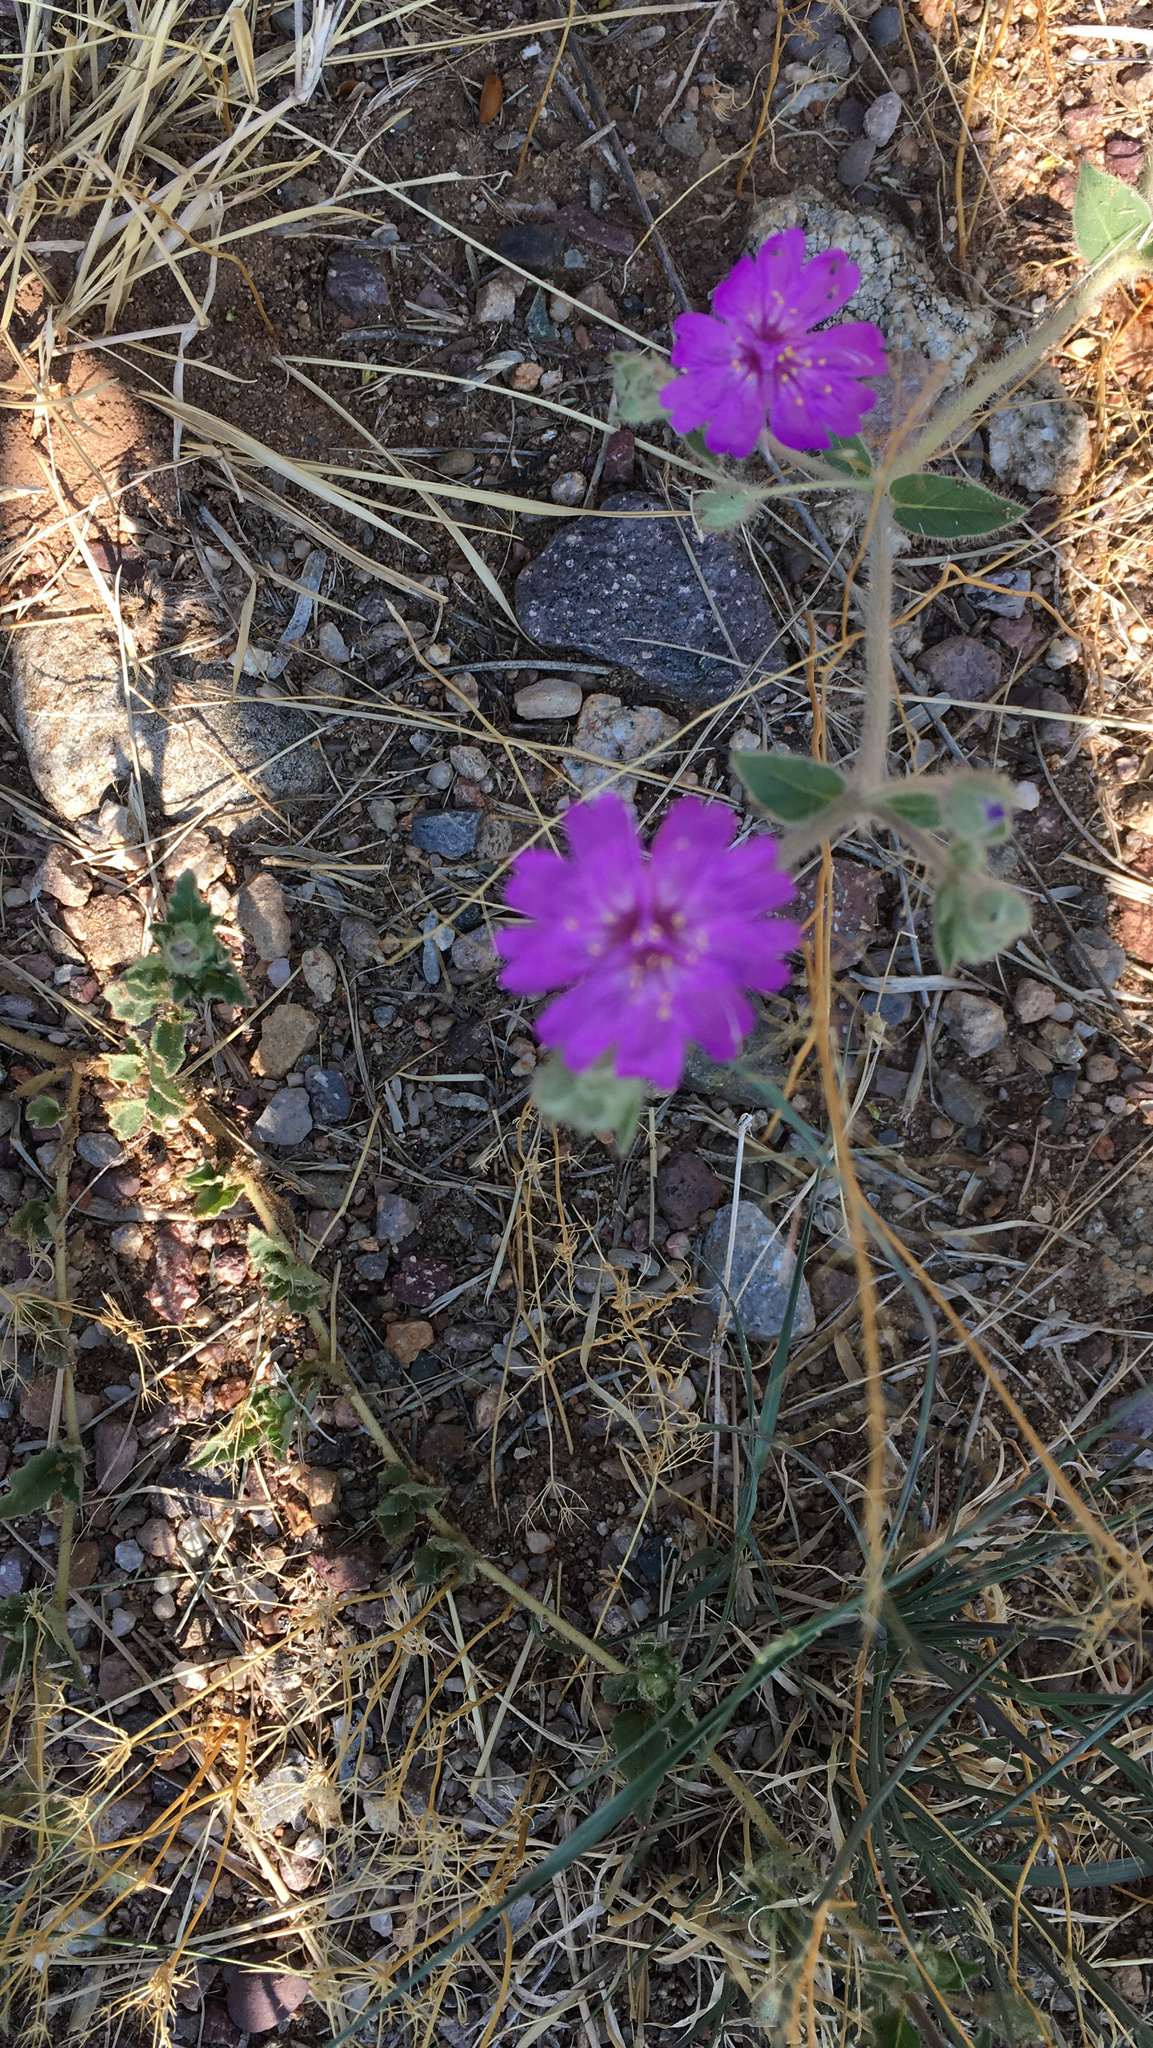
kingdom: Plantae
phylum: Tracheophyta
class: Magnoliopsida
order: Caryophyllales
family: Nyctaginaceae
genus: Allionia
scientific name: Allionia incarnata
